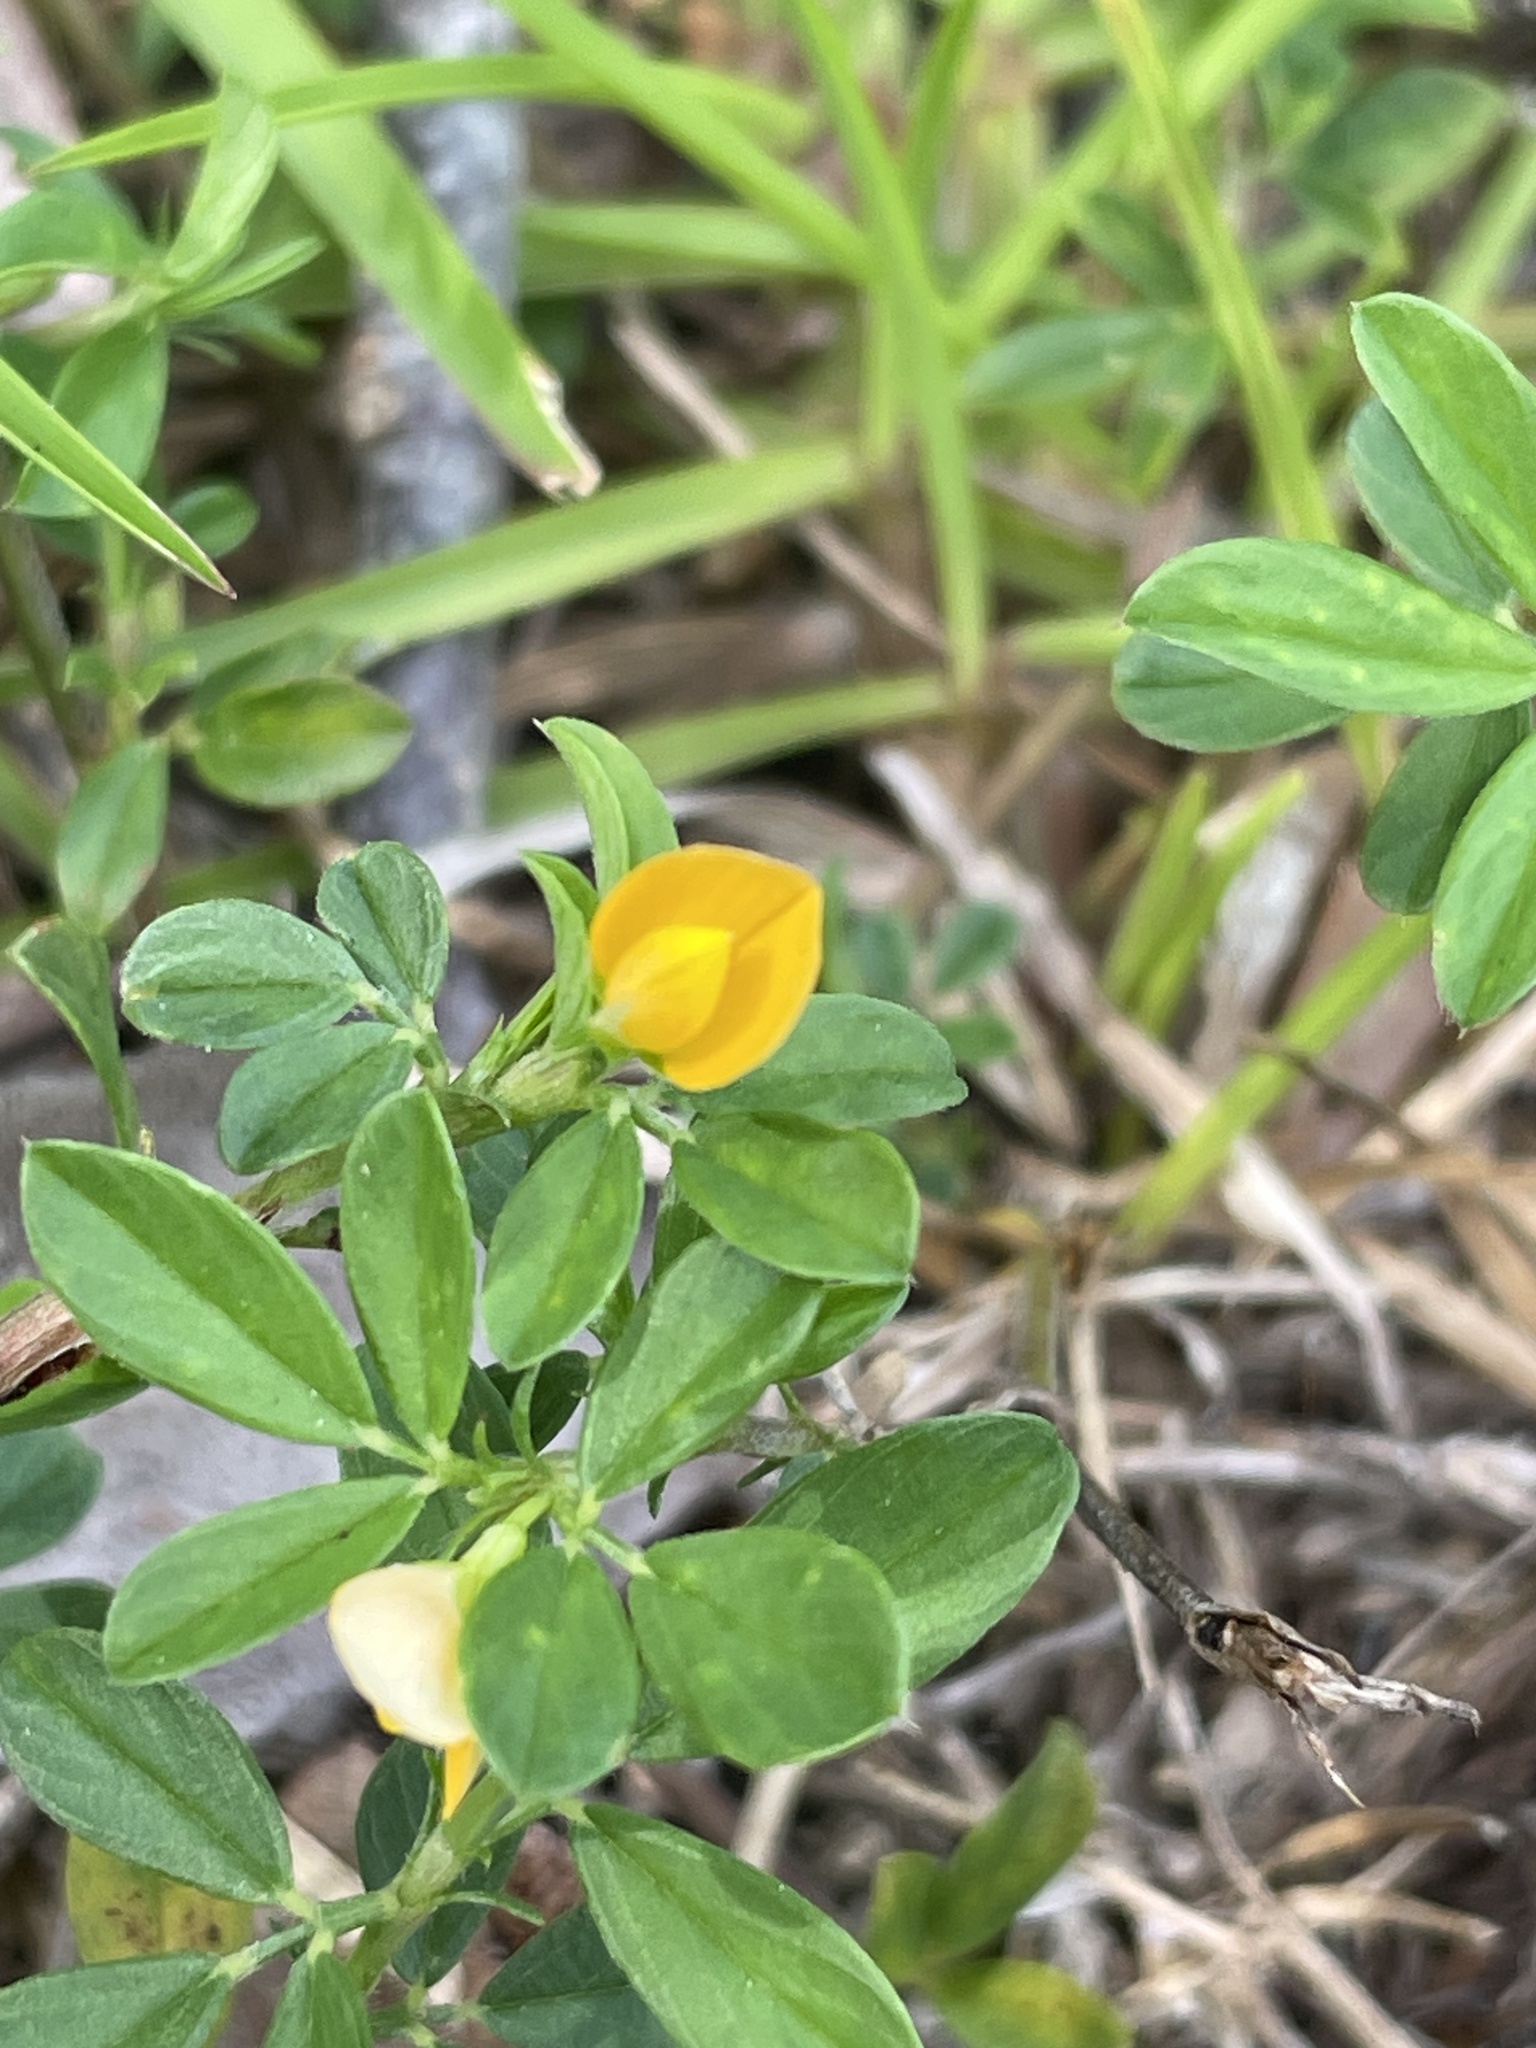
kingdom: Plantae
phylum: Tracheophyta
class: Magnoliopsida
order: Fabales
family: Fabaceae
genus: Stylosanthes
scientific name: Stylosanthes biflora
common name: Two-flower pencil-flower
